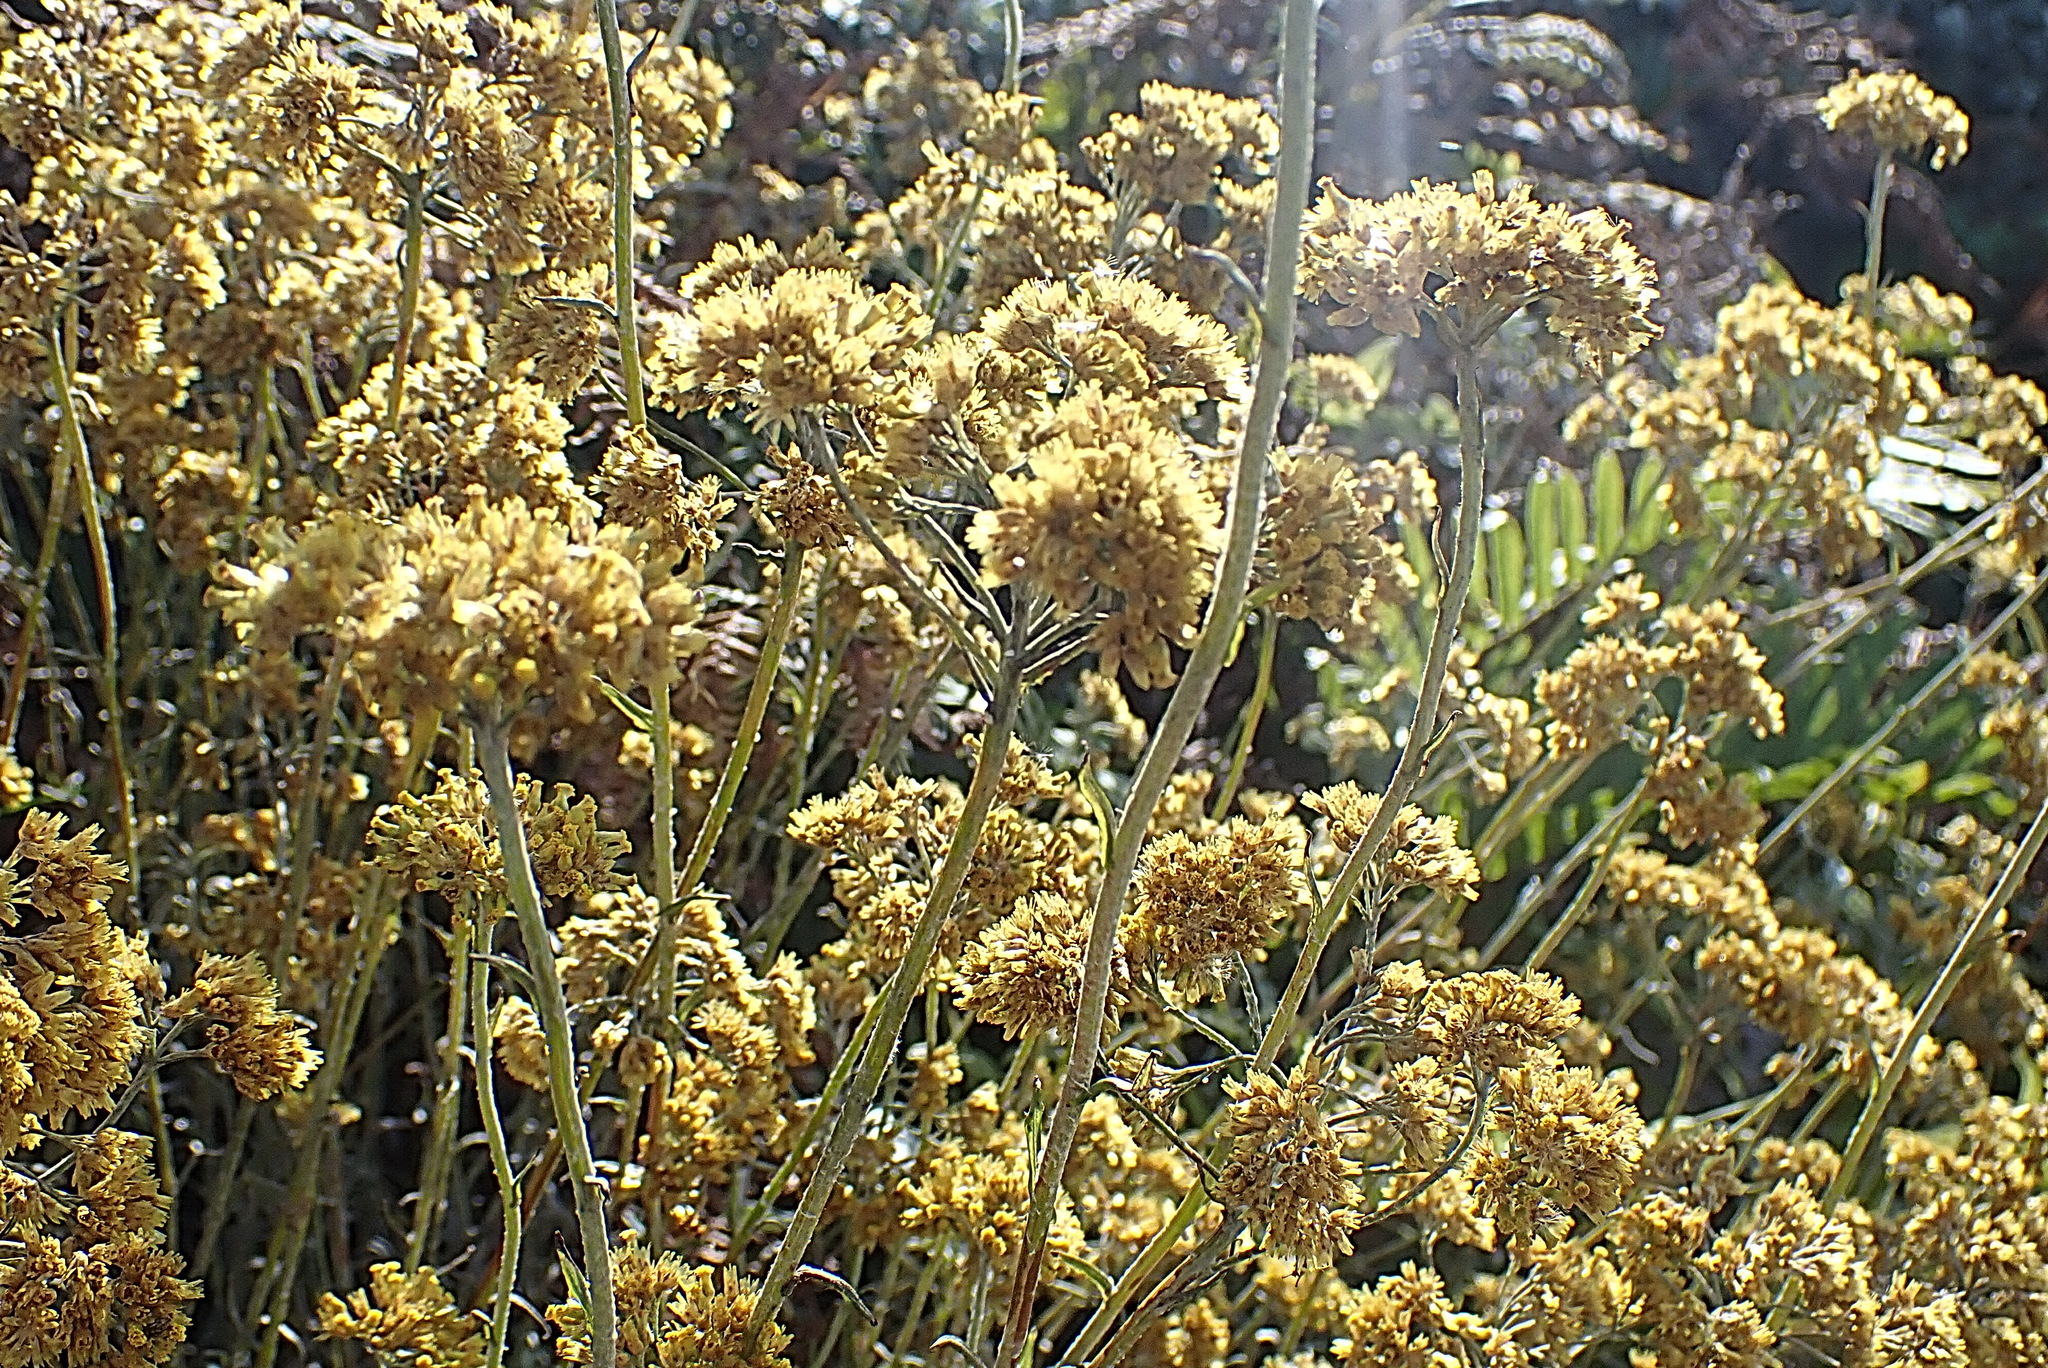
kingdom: Plantae
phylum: Tracheophyta
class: Magnoliopsida
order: Asterales
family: Asteraceae
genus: Helichrysum
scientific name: Helichrysum cymosum
